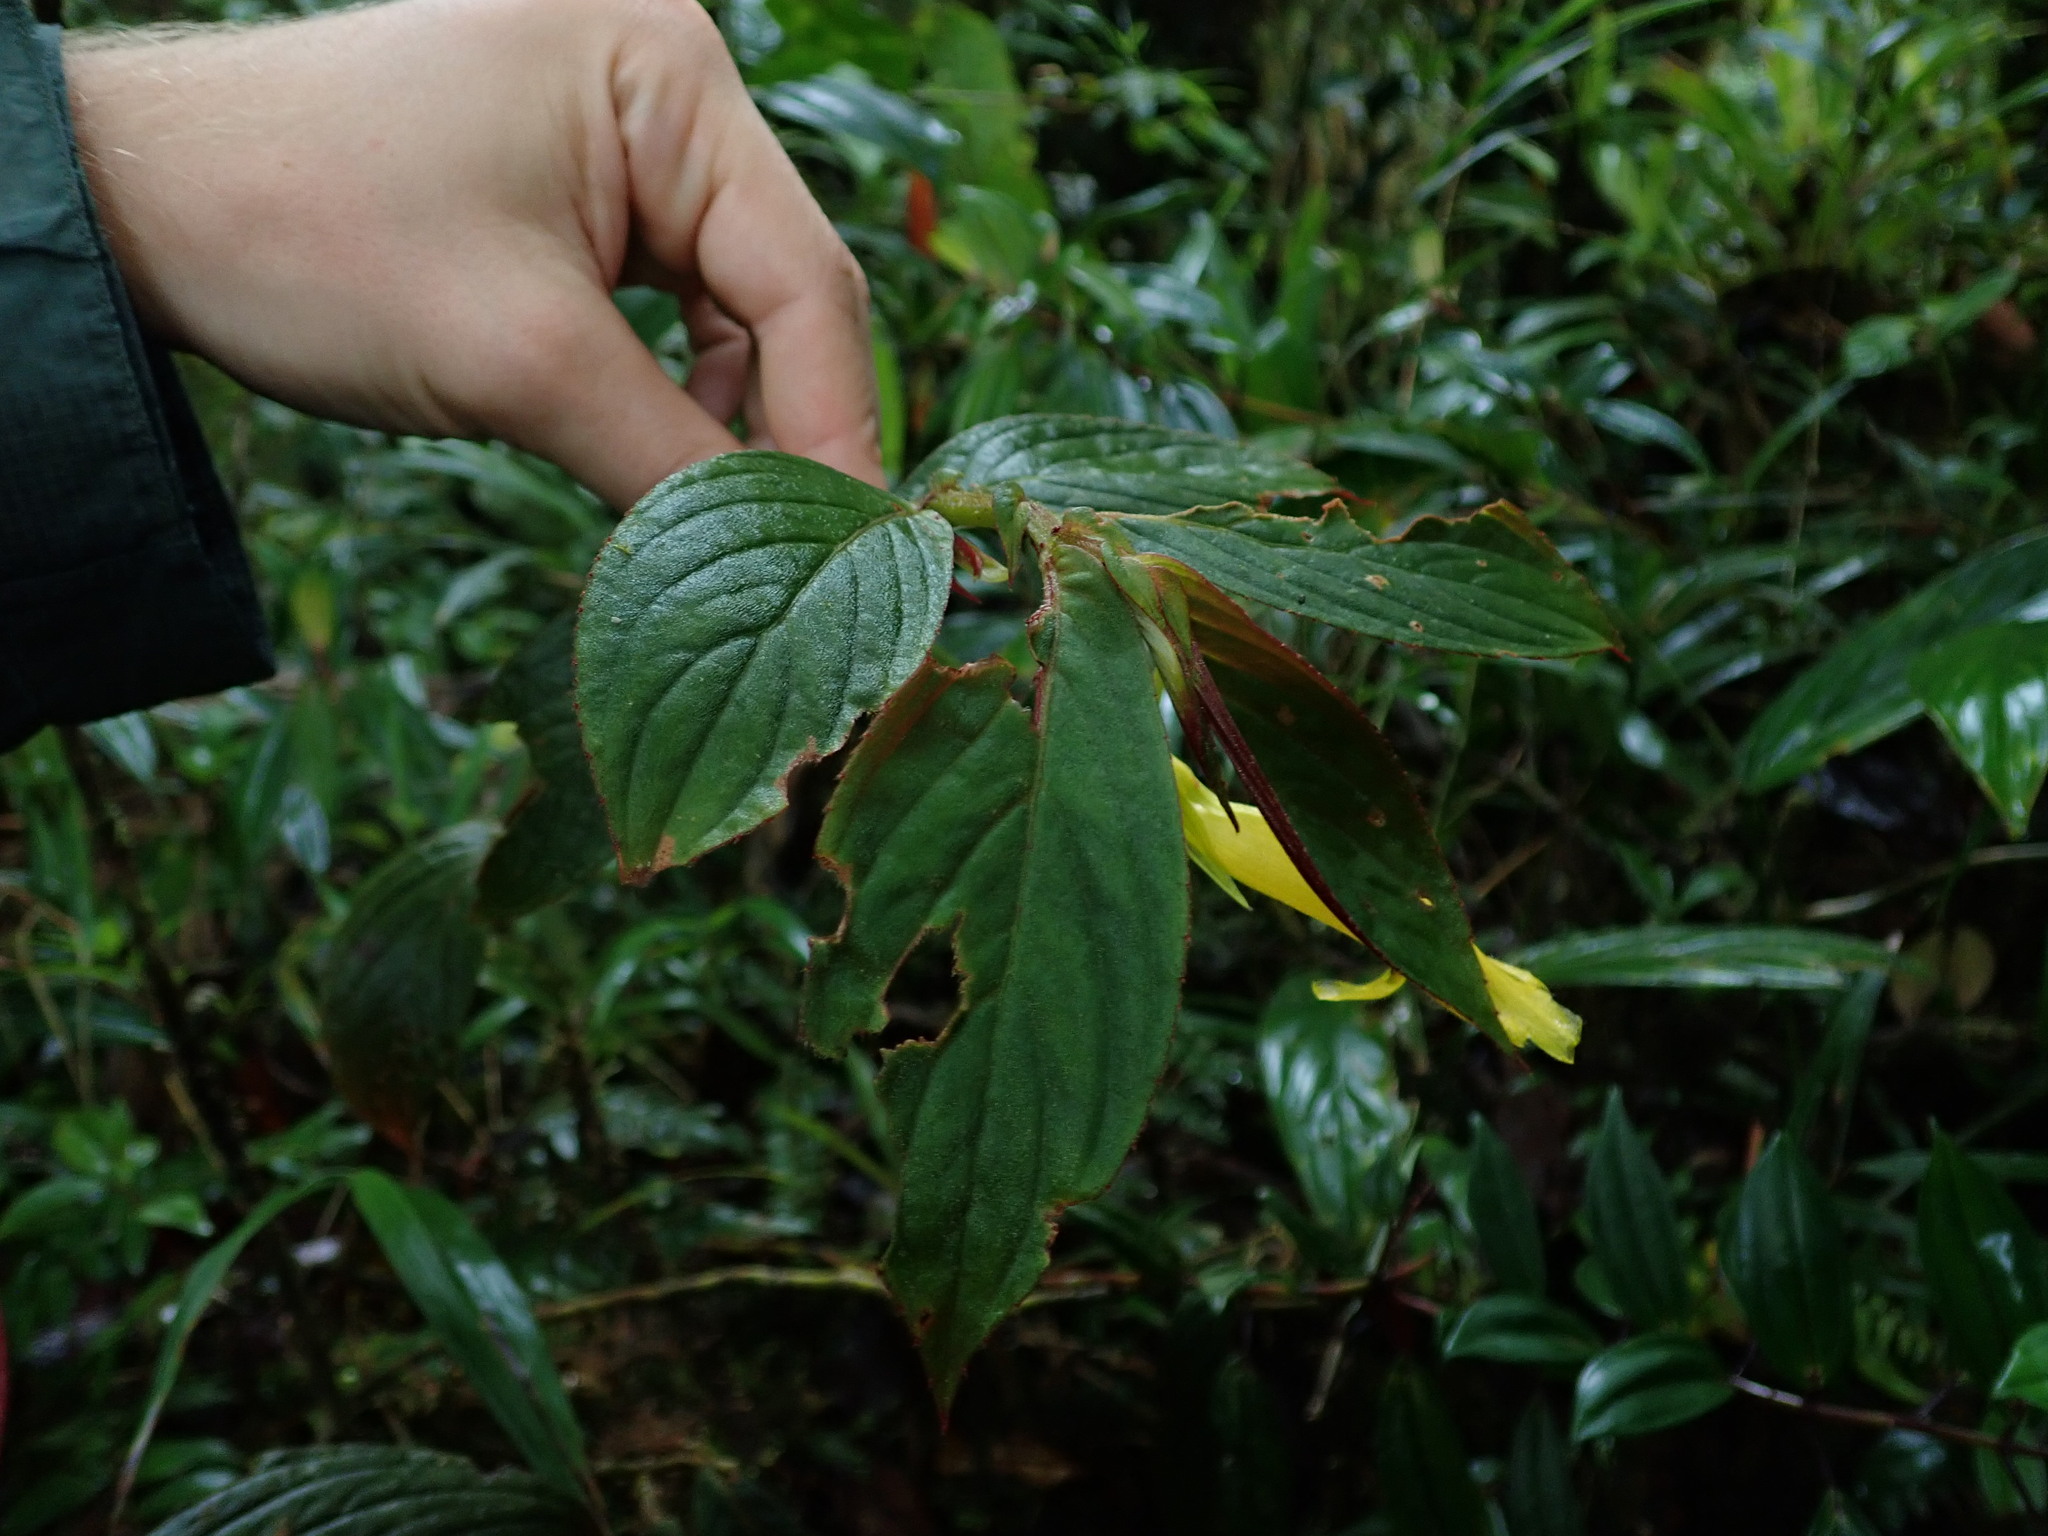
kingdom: Plantae
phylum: Tracheophyta
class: Magnoliopsida
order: Lamiales
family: Gesneriaceae
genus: Columnea
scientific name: Columnea ericae
